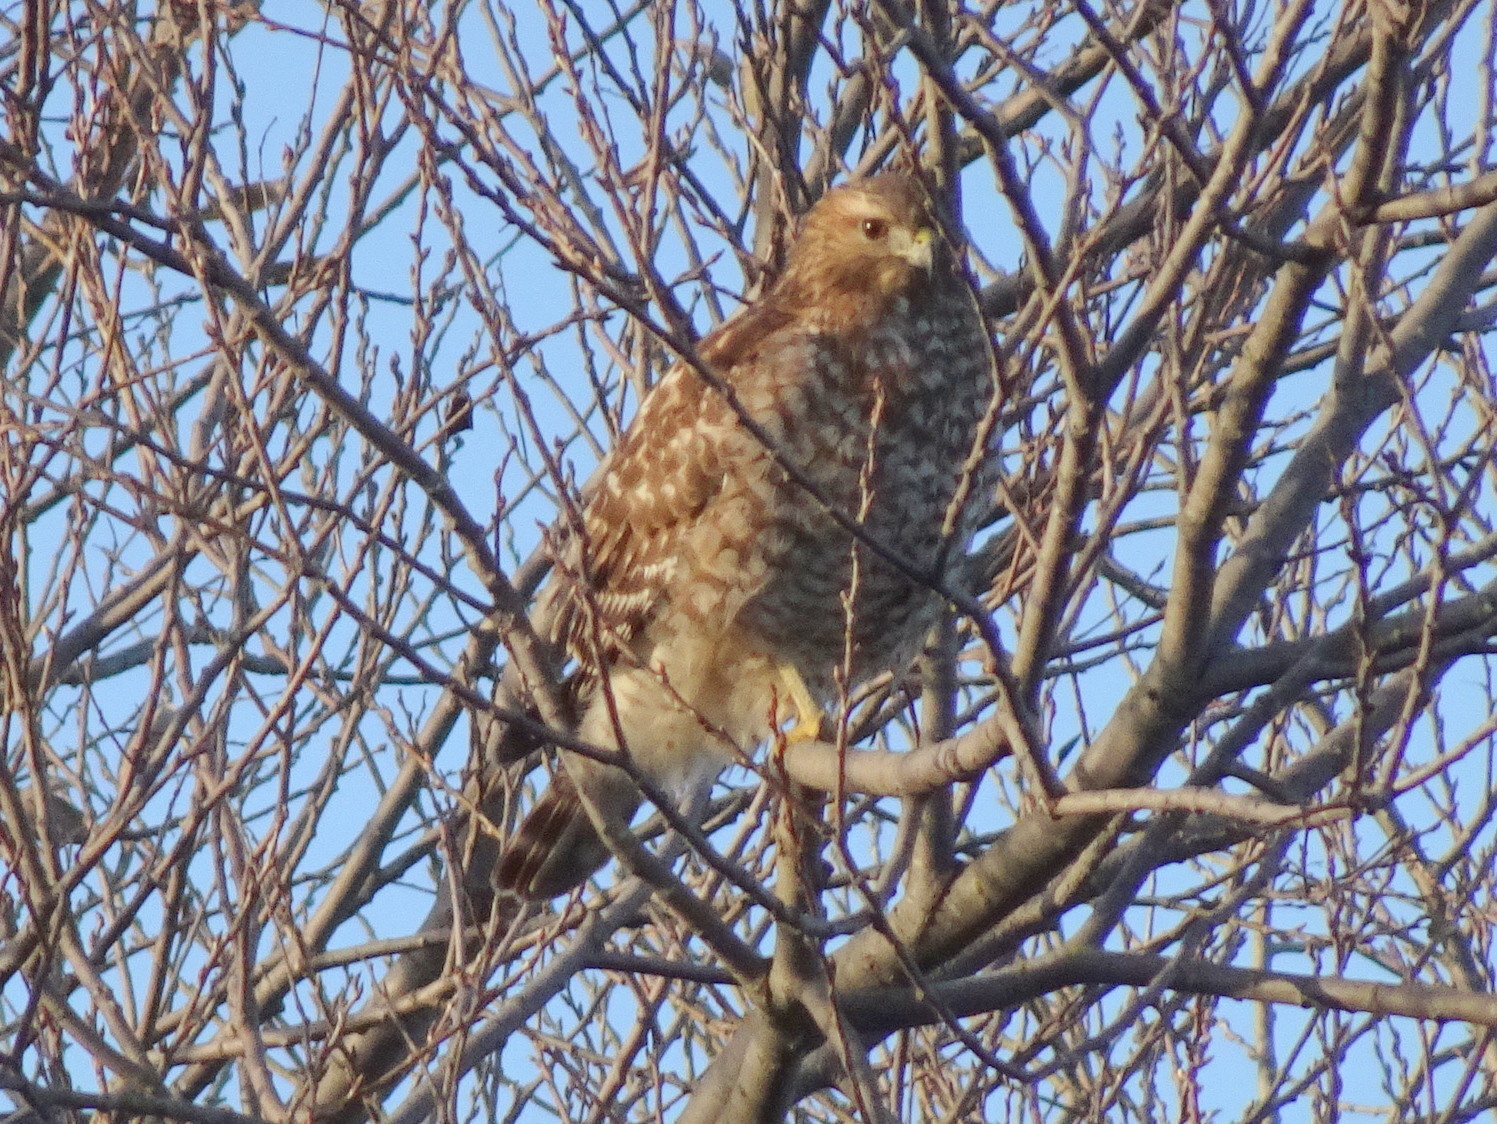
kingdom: Animalia
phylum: Chordata
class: Aves
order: Accipitriformes
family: Accipitridae
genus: Buteo
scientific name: Buteo lineatus
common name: Red-shouldered hawk
